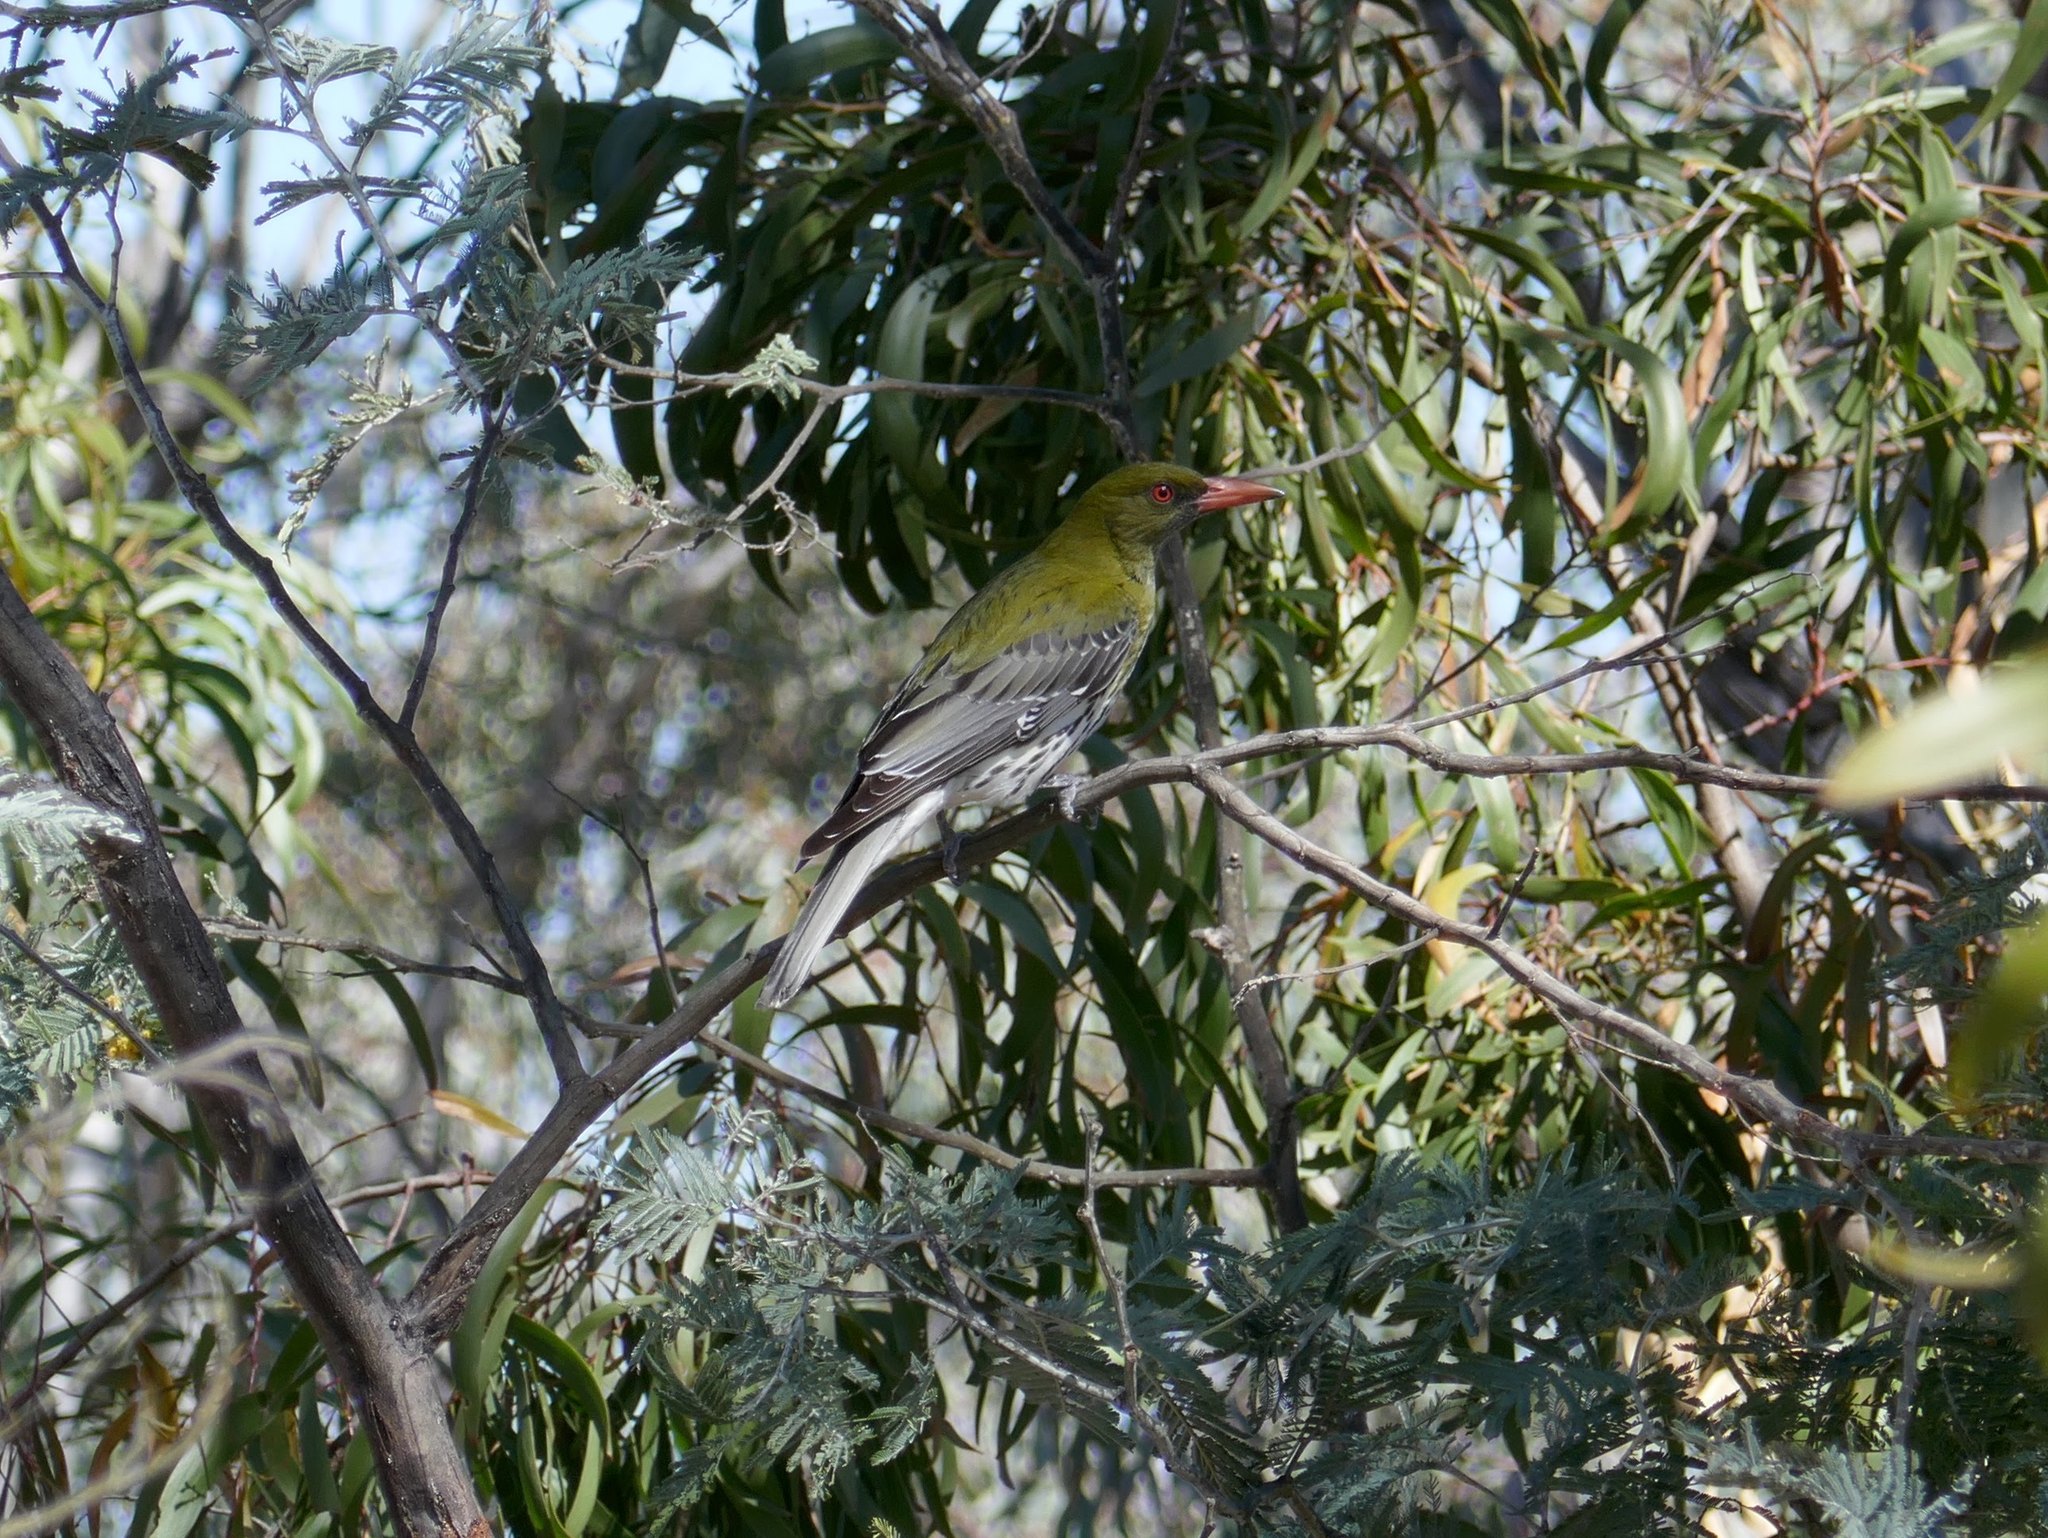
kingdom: Animalia
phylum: Chordata
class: Aves
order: Passeriformes
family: Oriolidae
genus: Oriolus
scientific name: Oriolus sagittatus
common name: Olive-backed oriole
